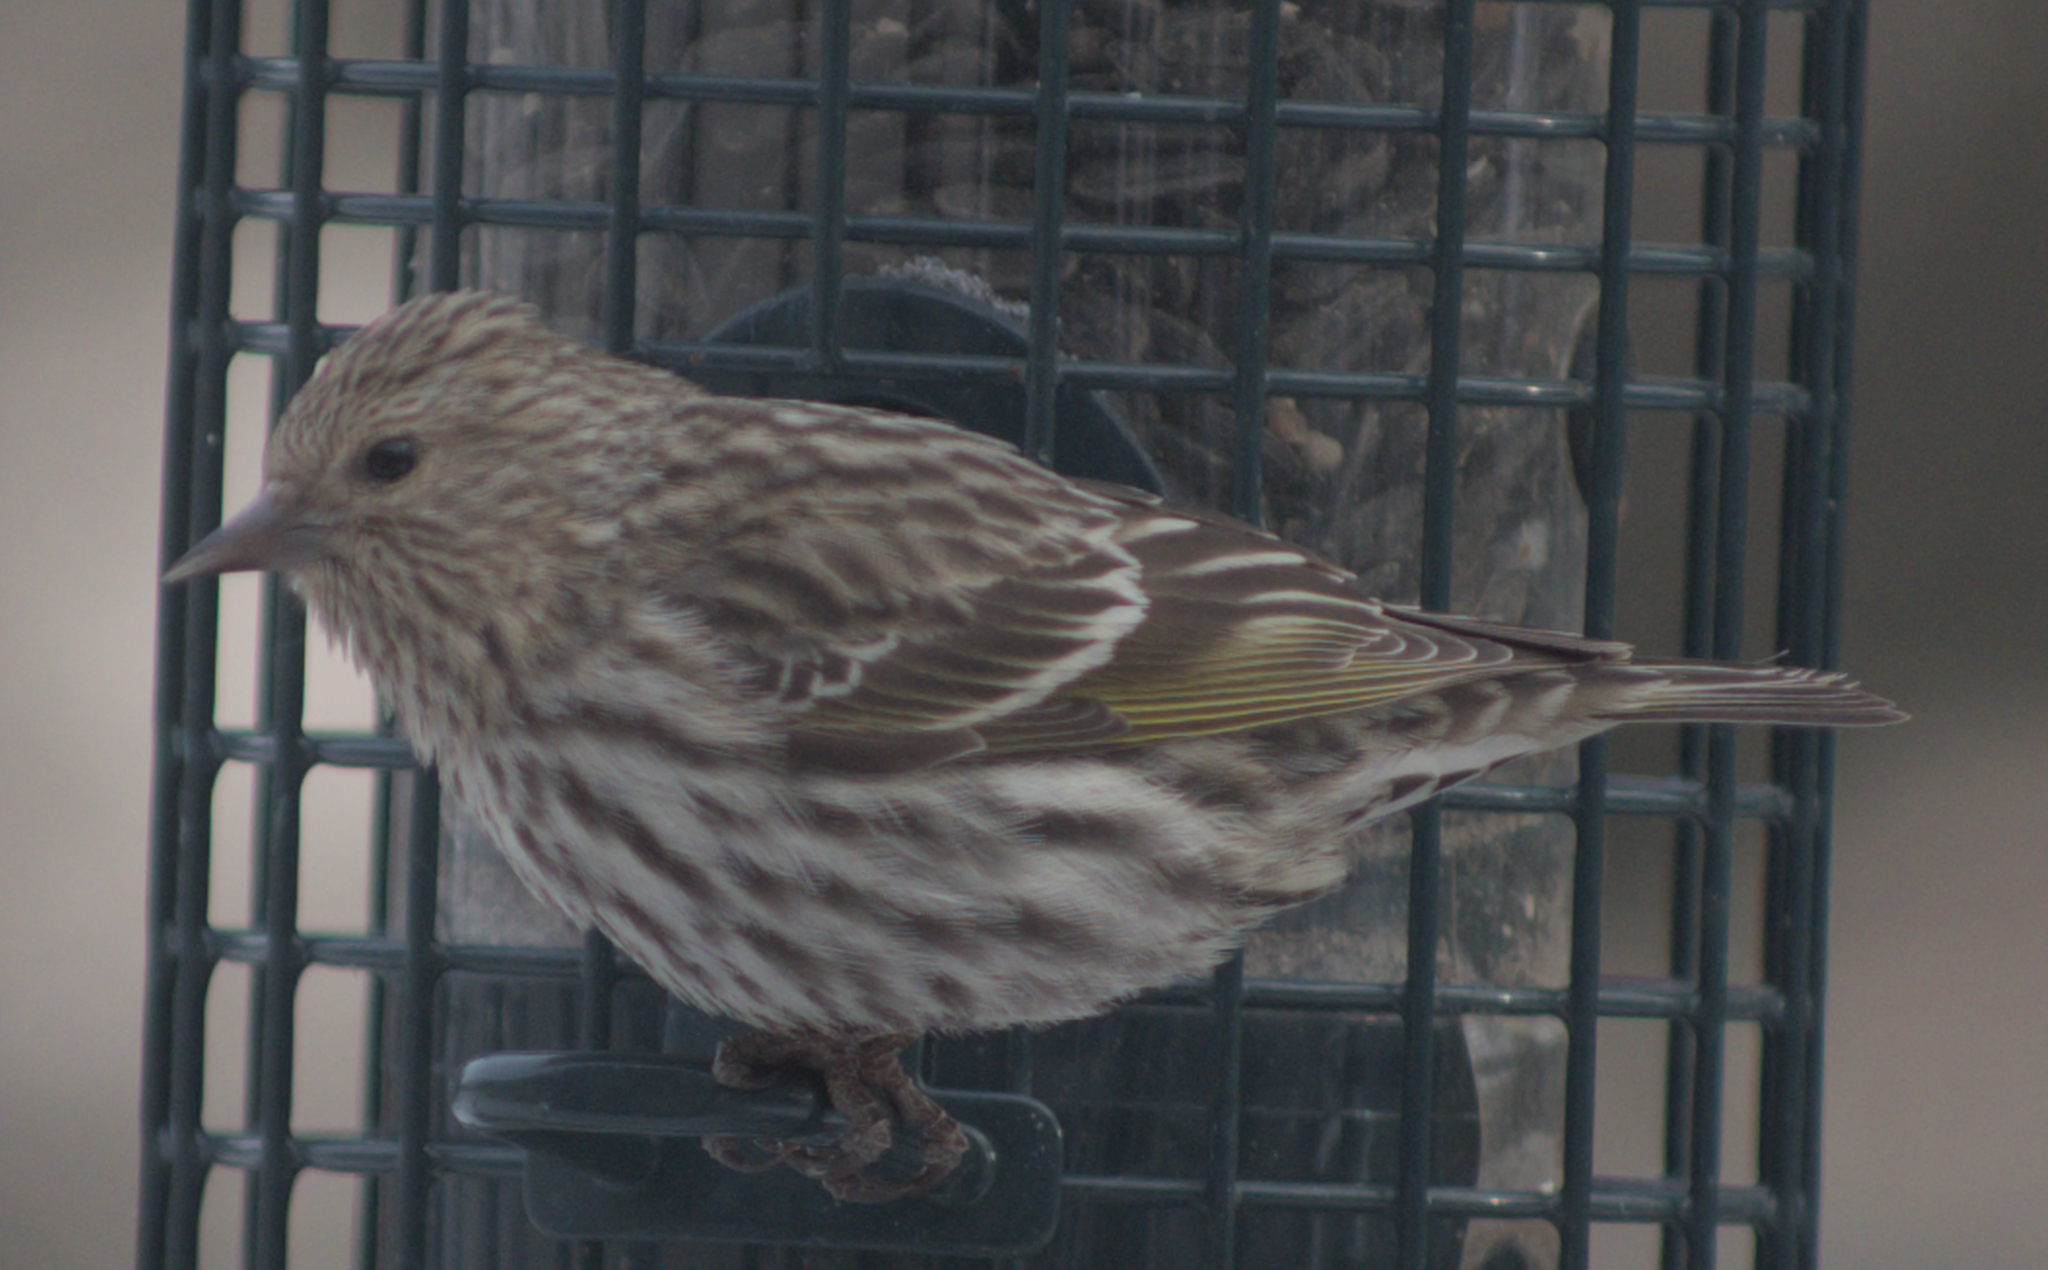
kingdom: Animalia
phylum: Chordata
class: Aves
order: Passeriformes
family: Fringillidae
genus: Spinus
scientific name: Spinus pinus
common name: Pine siskin
